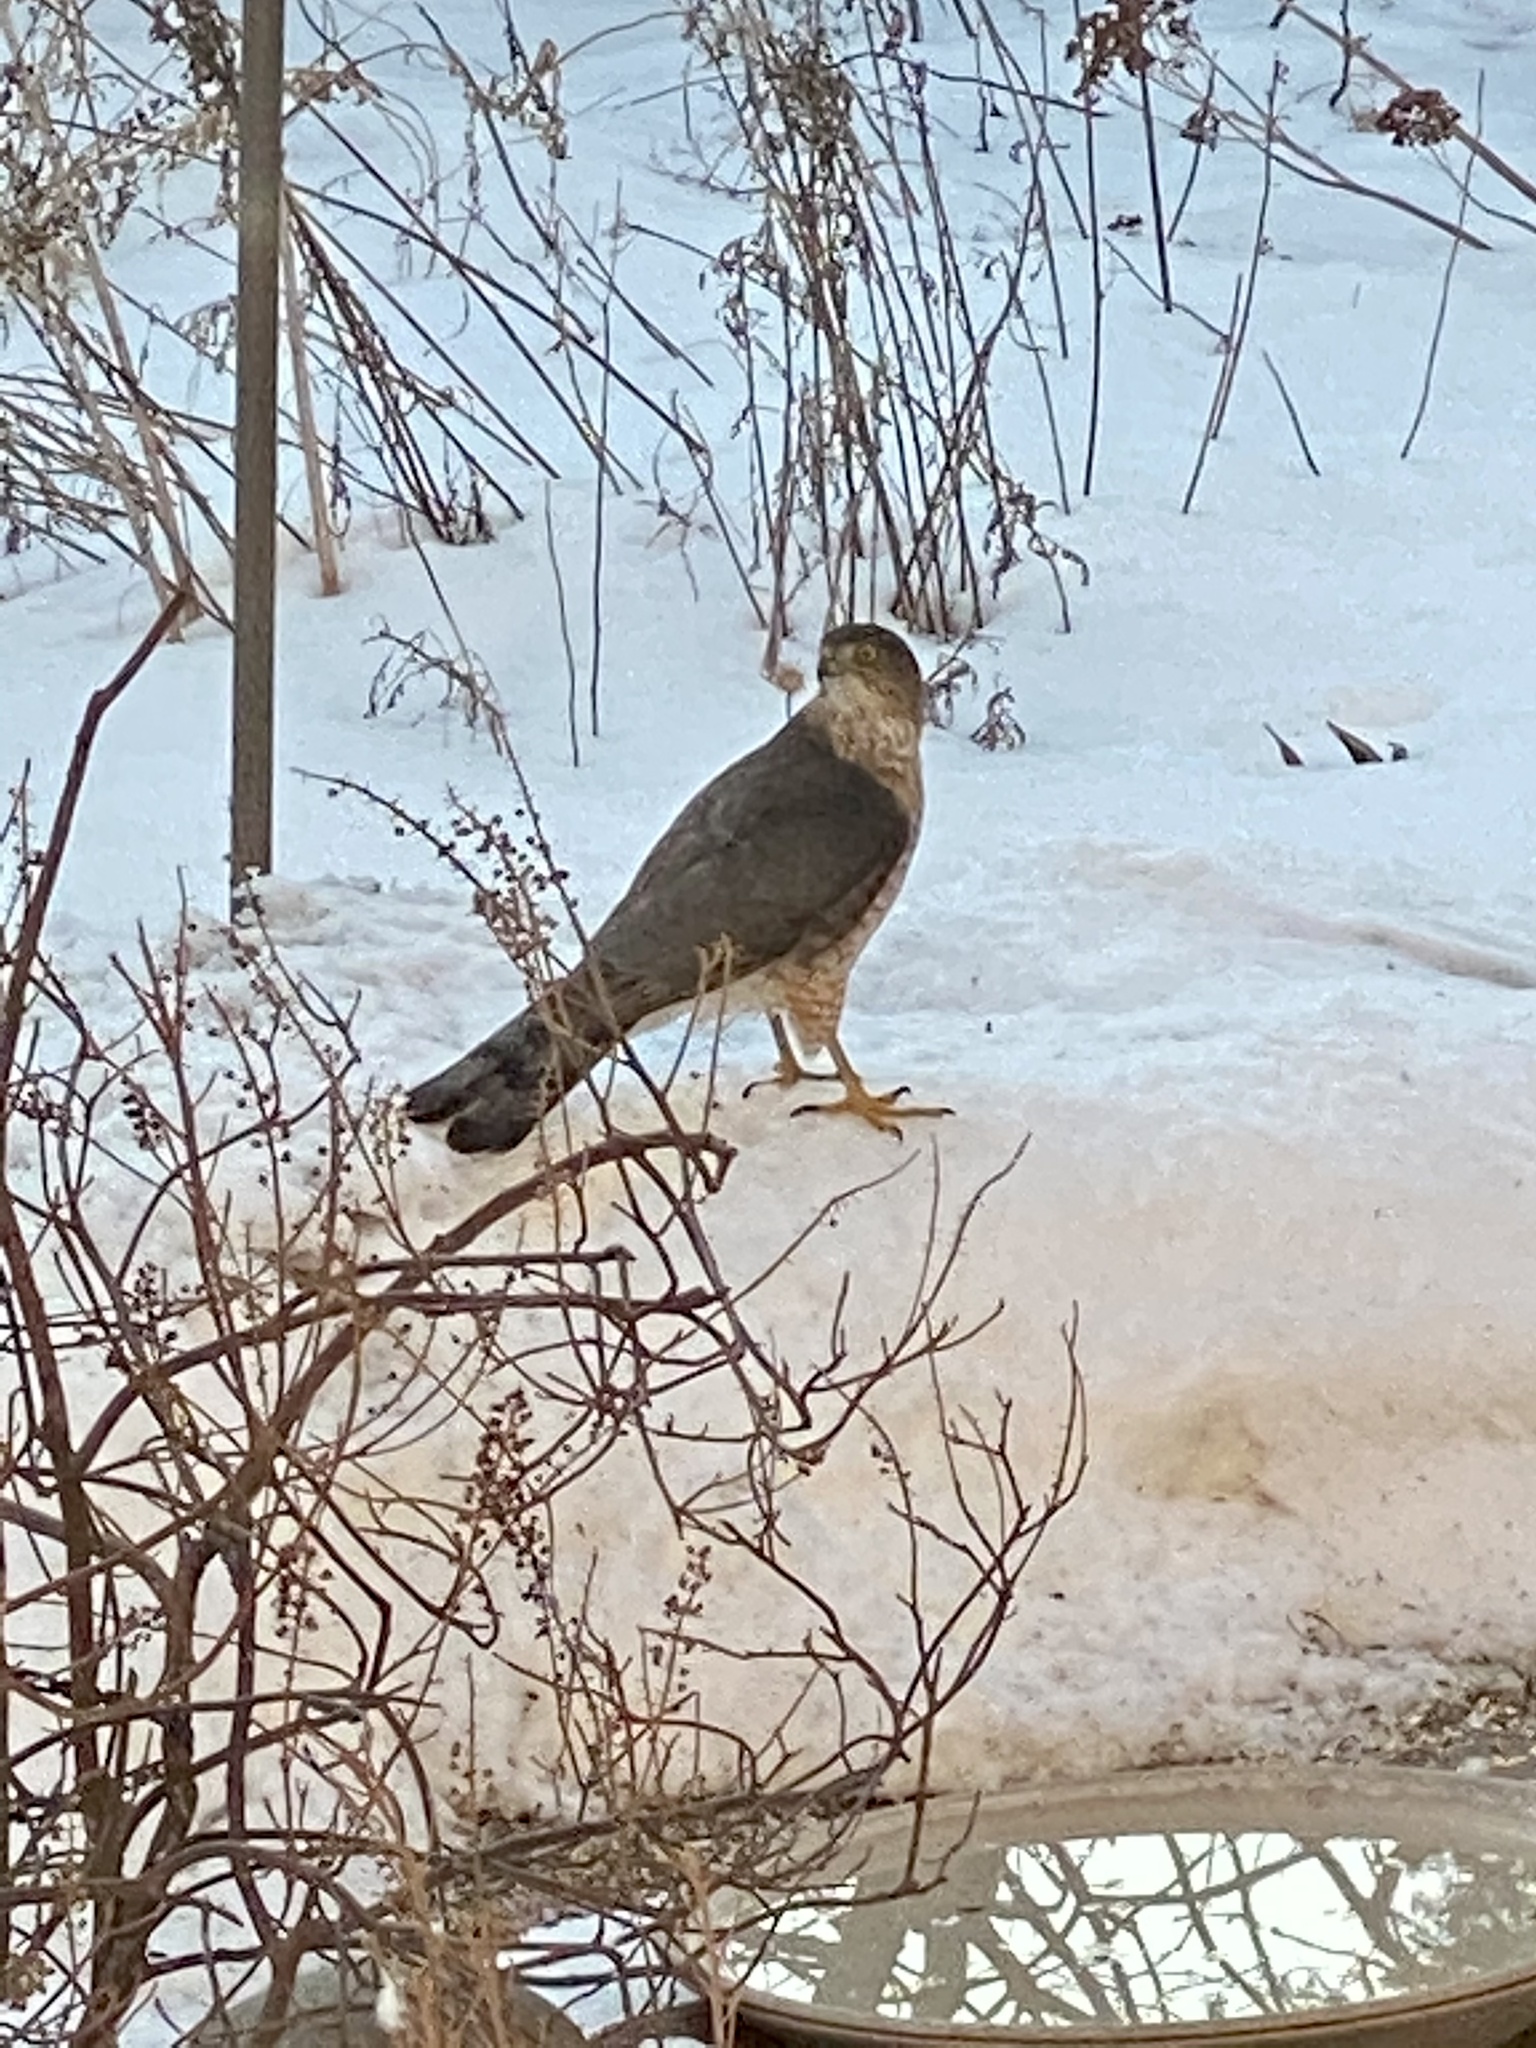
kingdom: Animalia
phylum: Chordata
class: Aves
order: Accipitriformes
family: Accipitridae
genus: Accipiter
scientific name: Accipiter cooperii
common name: Cooper's hawk
